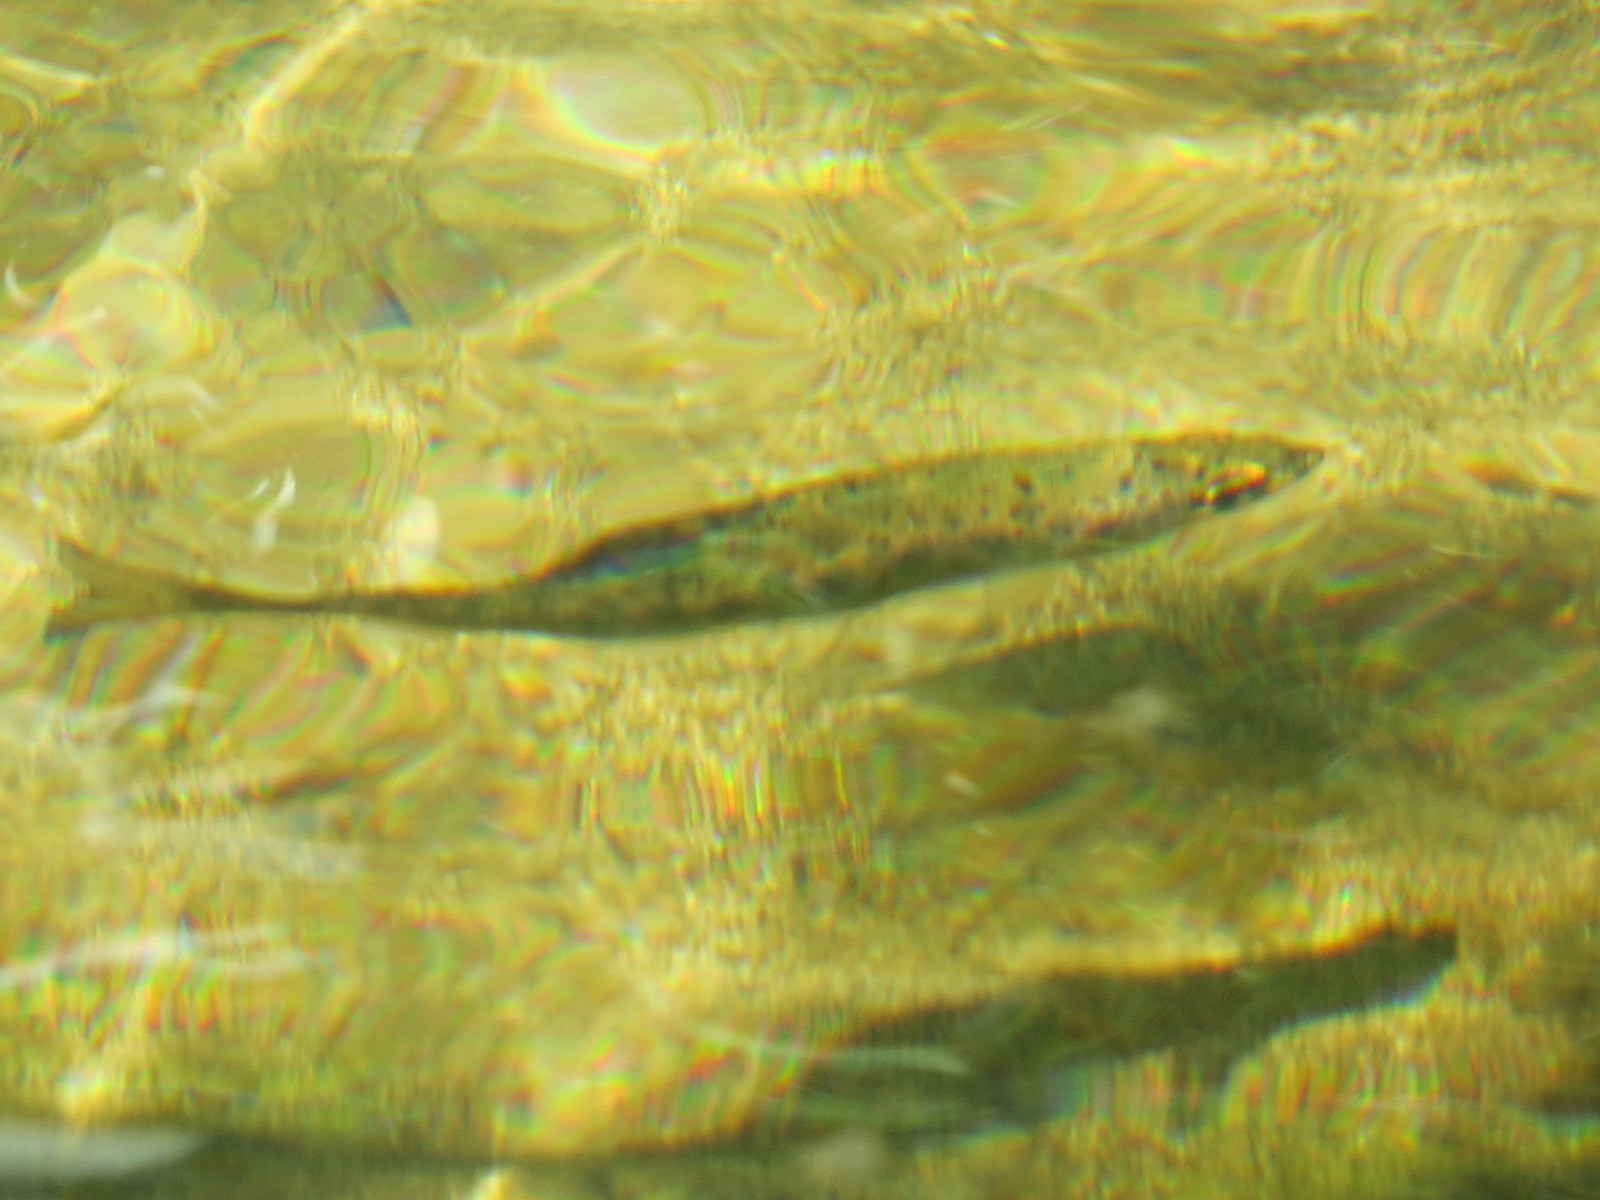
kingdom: Animalia
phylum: Chordata
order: Salmoniformes
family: Salmonidae
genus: Oncorhynchus
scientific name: Oncorhynchus mykiss
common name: Rainbow trout
